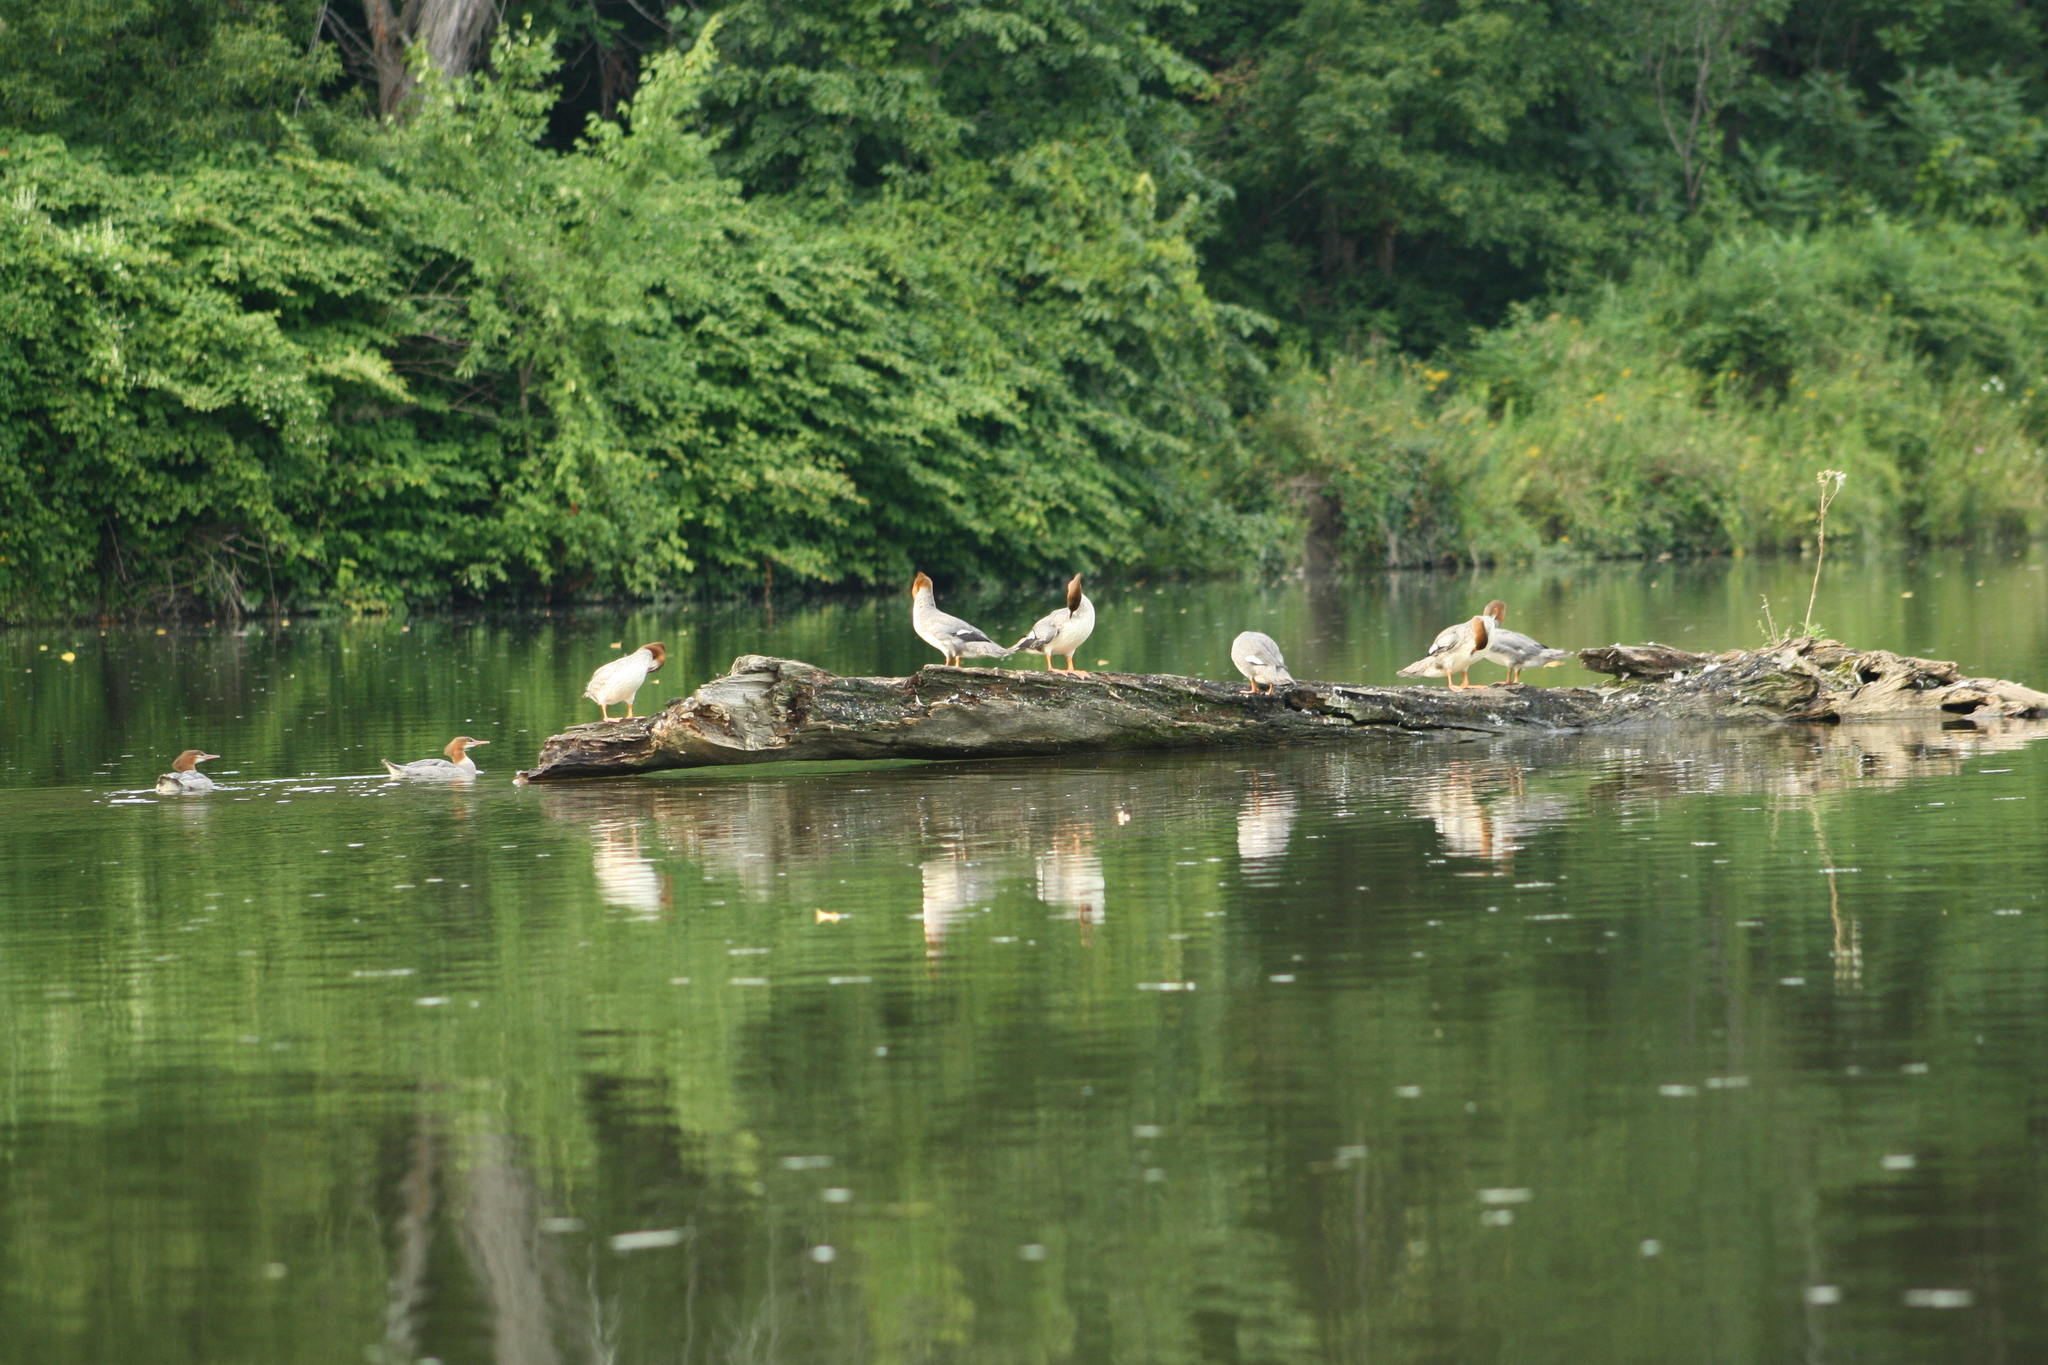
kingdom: Animalia
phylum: Chordata
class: Aves
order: Anseriformes
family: Anatidae
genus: Mergus
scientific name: Mergus merganser
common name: Common merganser
